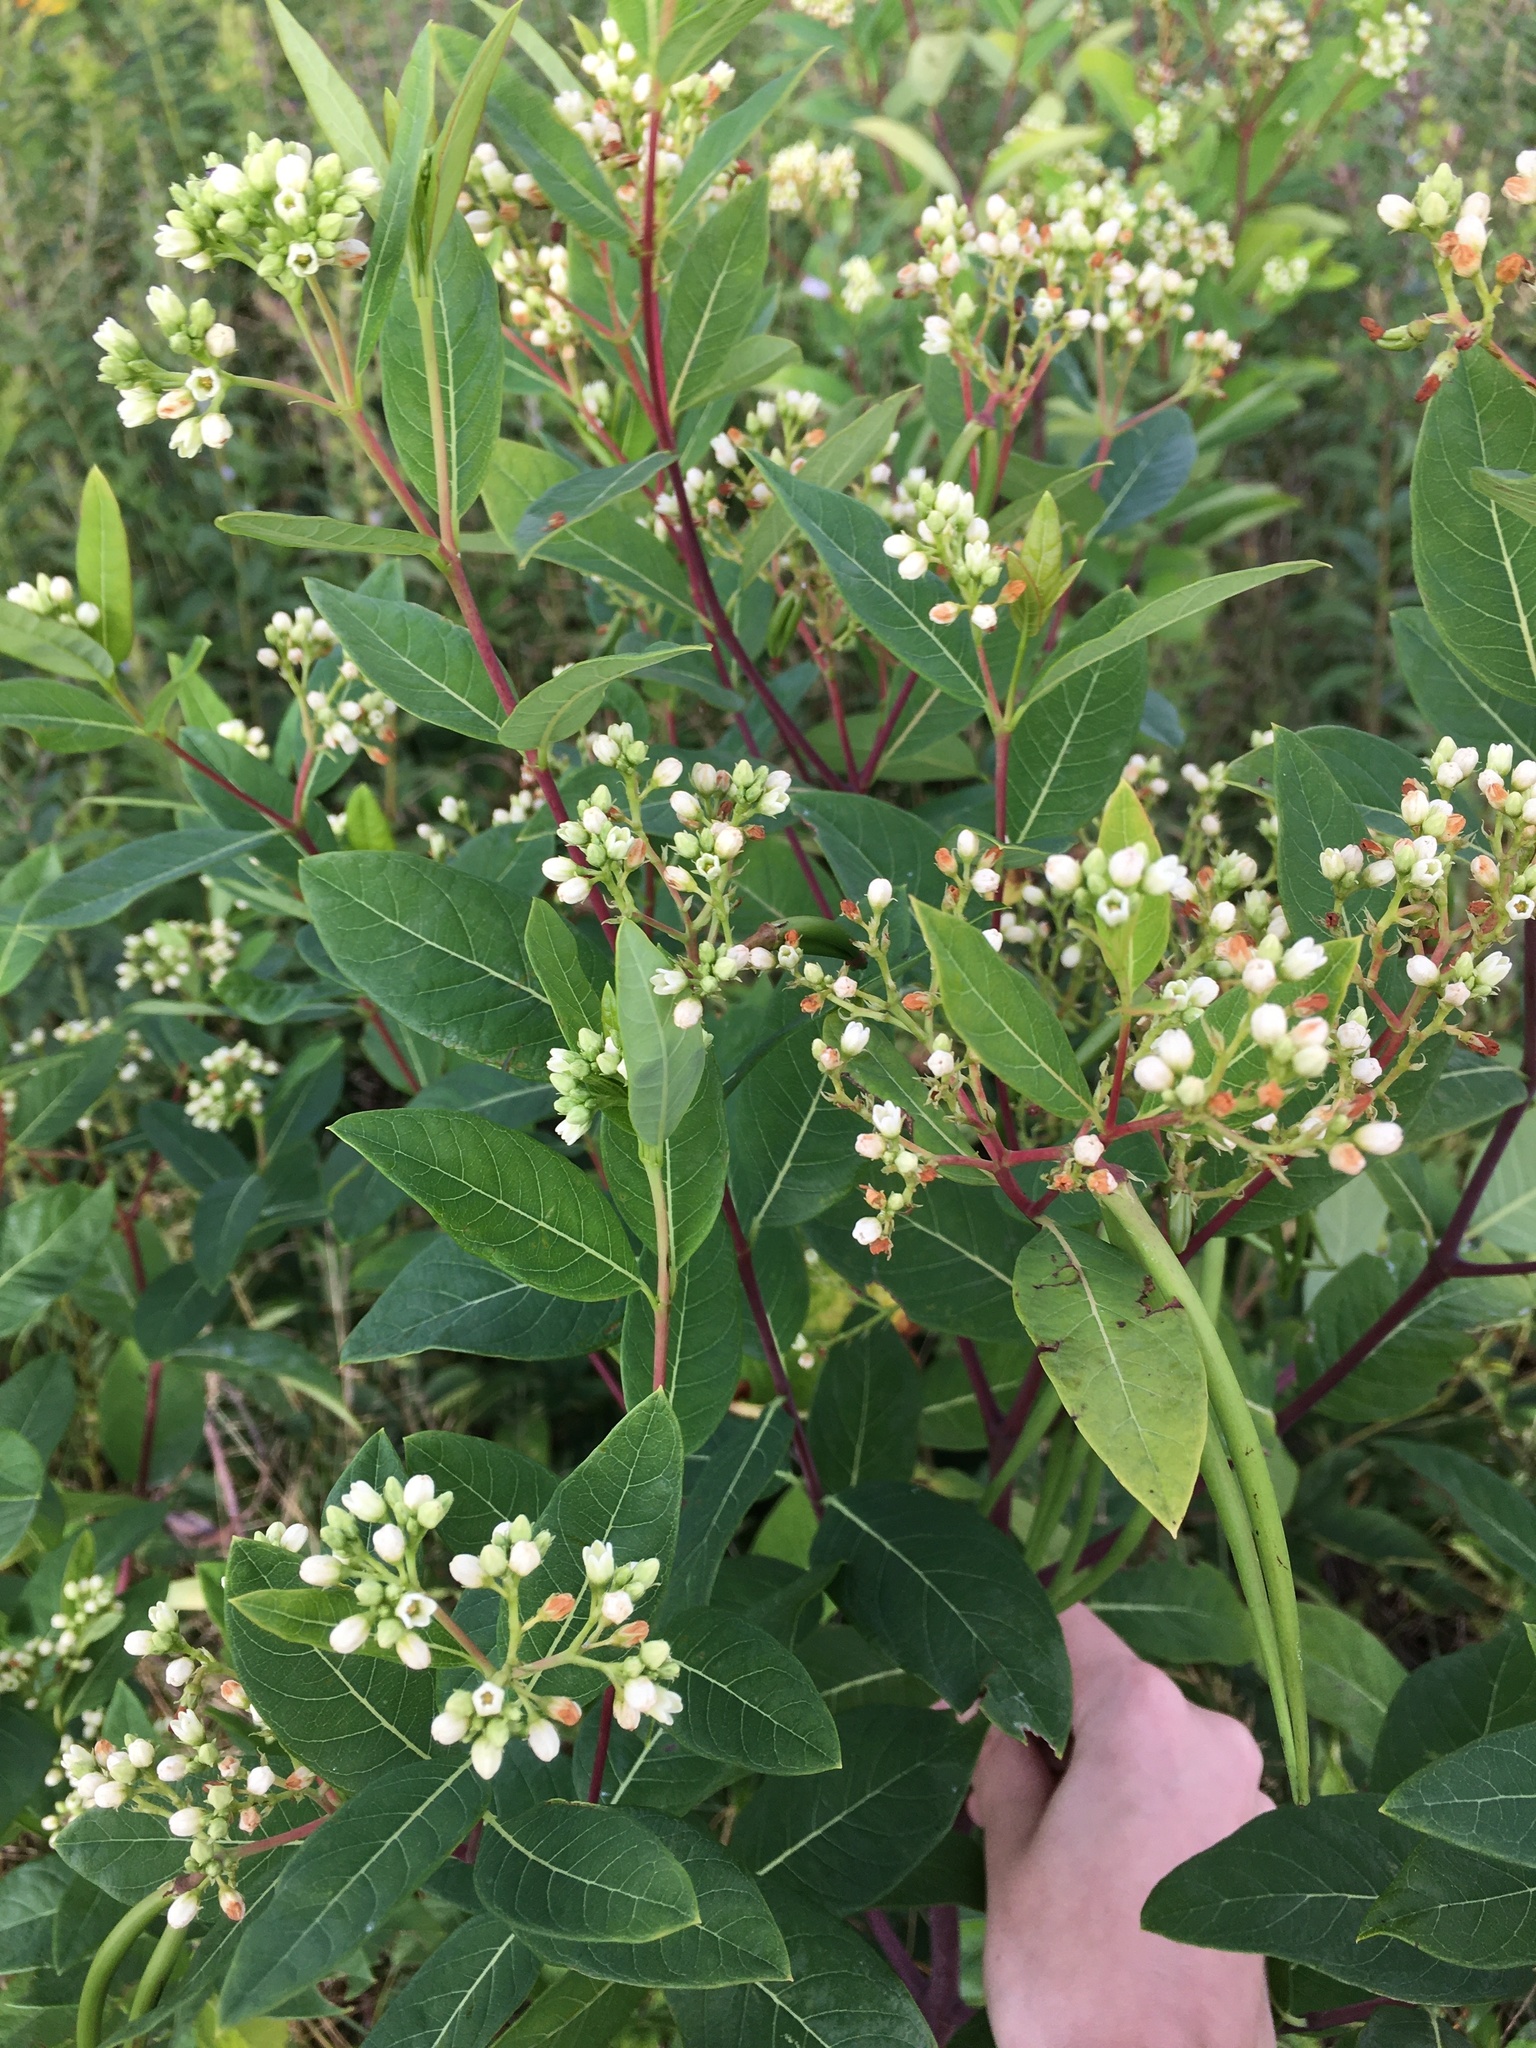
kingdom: Plantae
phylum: Tracheophyta
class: Magnoliopsida
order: Gentianales
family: Apocynaceae
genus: Apocynum
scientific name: Apocynum cannabinum
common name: Hemp dogbane
